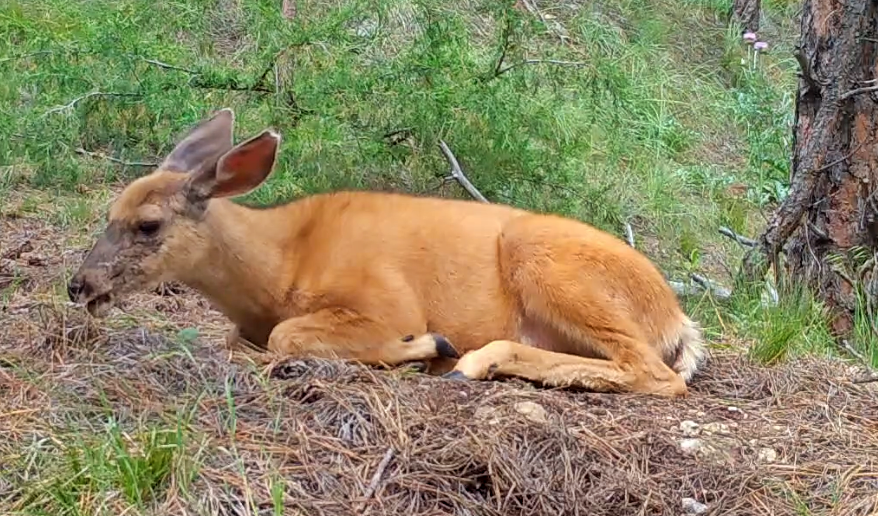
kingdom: Animalia
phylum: Chordata
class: Mammalia
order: Artiodactyla
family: Cervidae
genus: Odocoileus
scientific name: Odocoileus hemionus
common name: Mule deer
